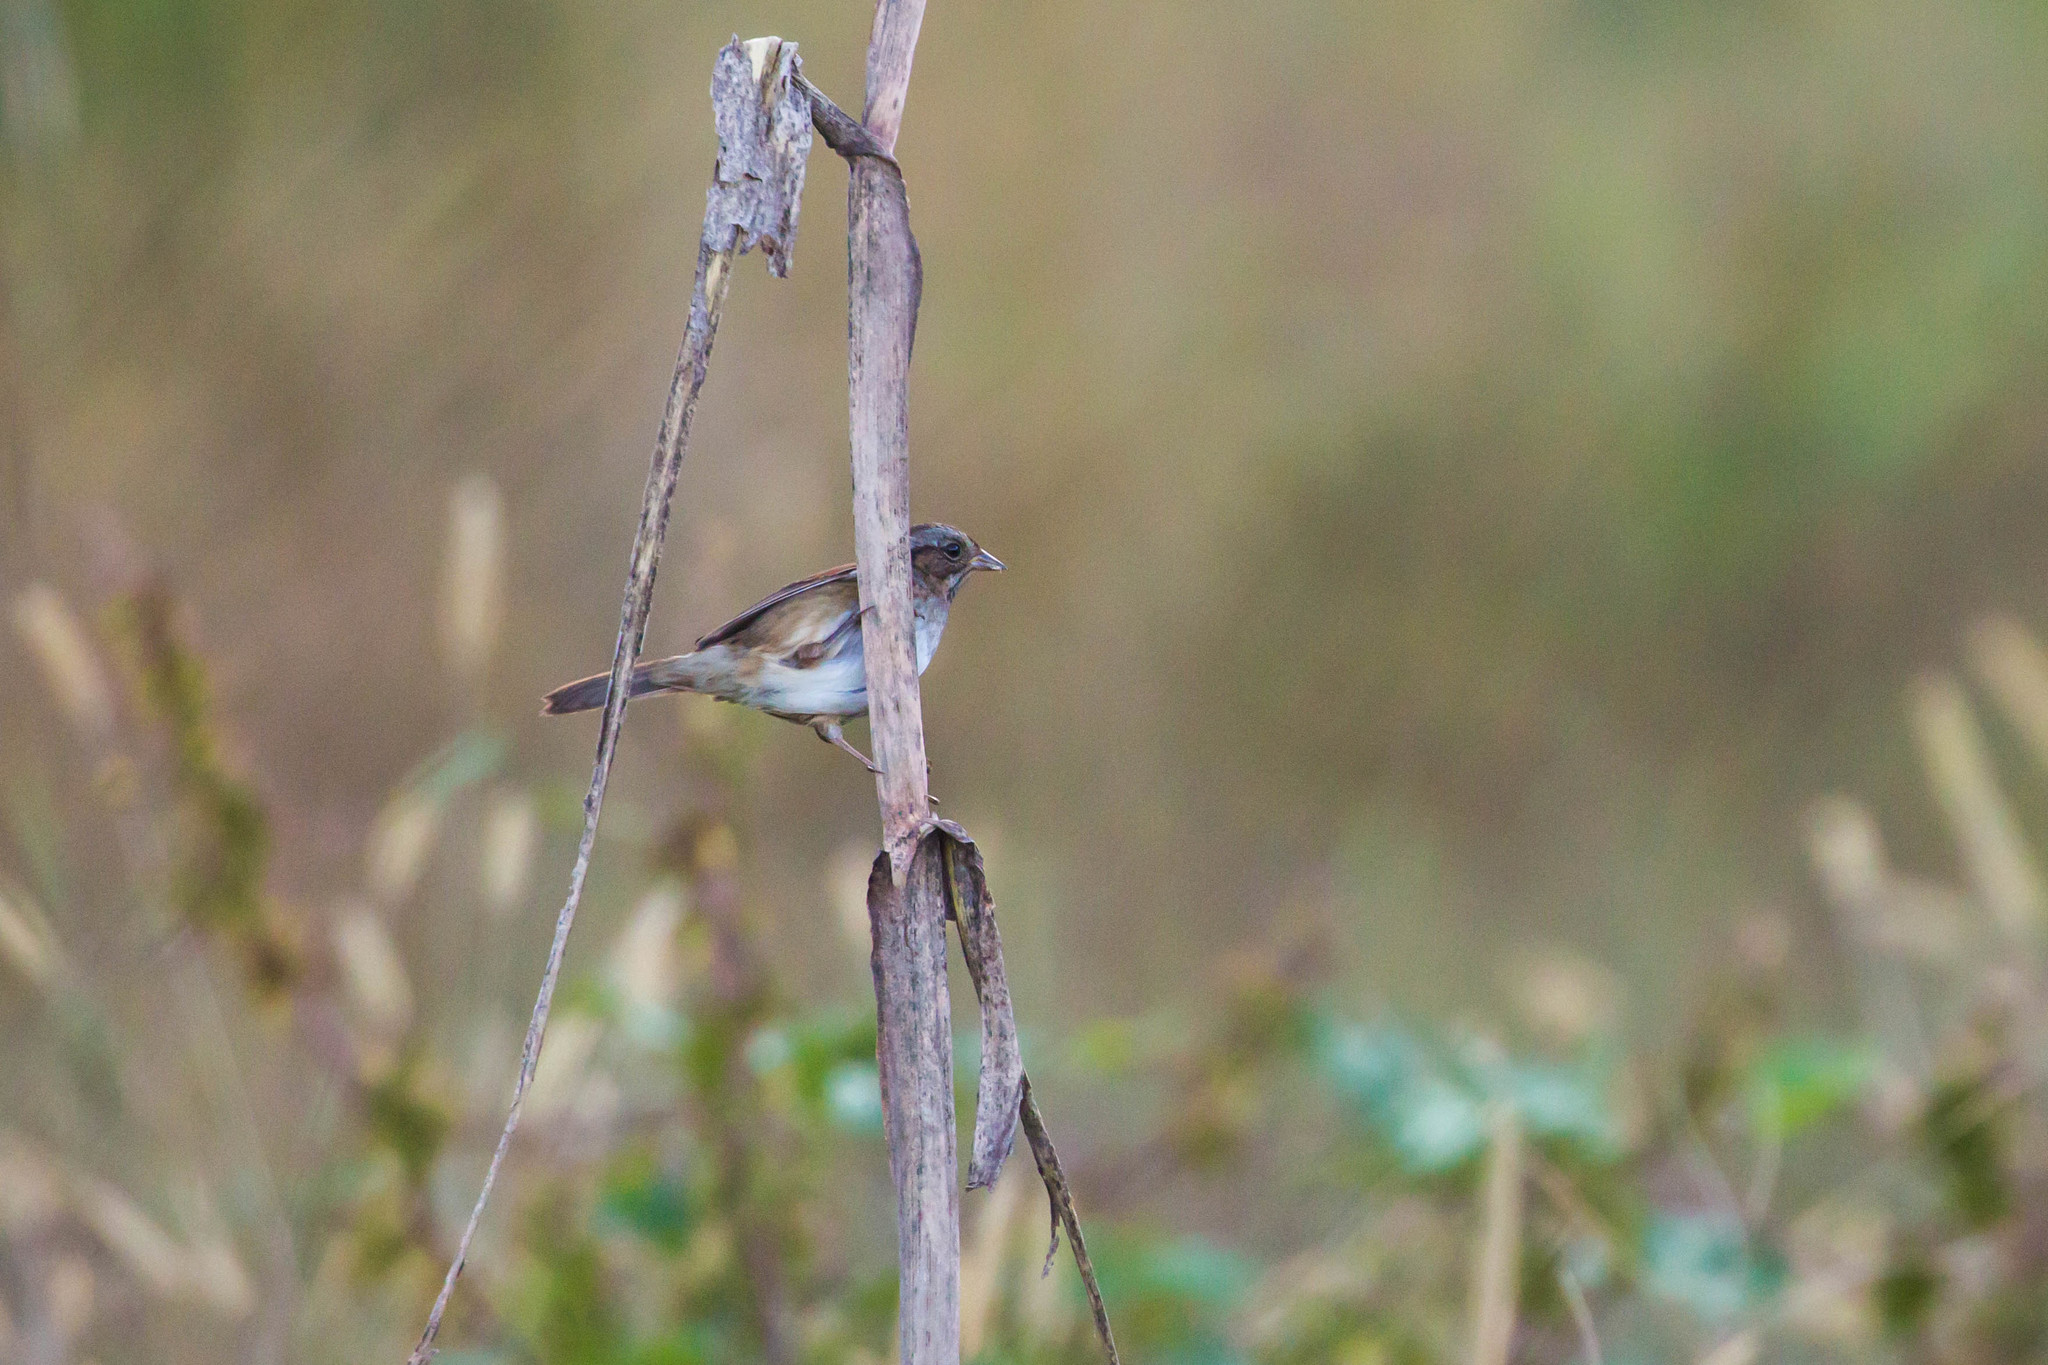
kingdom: Animalia
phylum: Chordata
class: Aves
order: Passeriformes
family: Passerellidae
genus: Melospiza
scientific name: Melospiza georgiana
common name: Swamp sparrow
